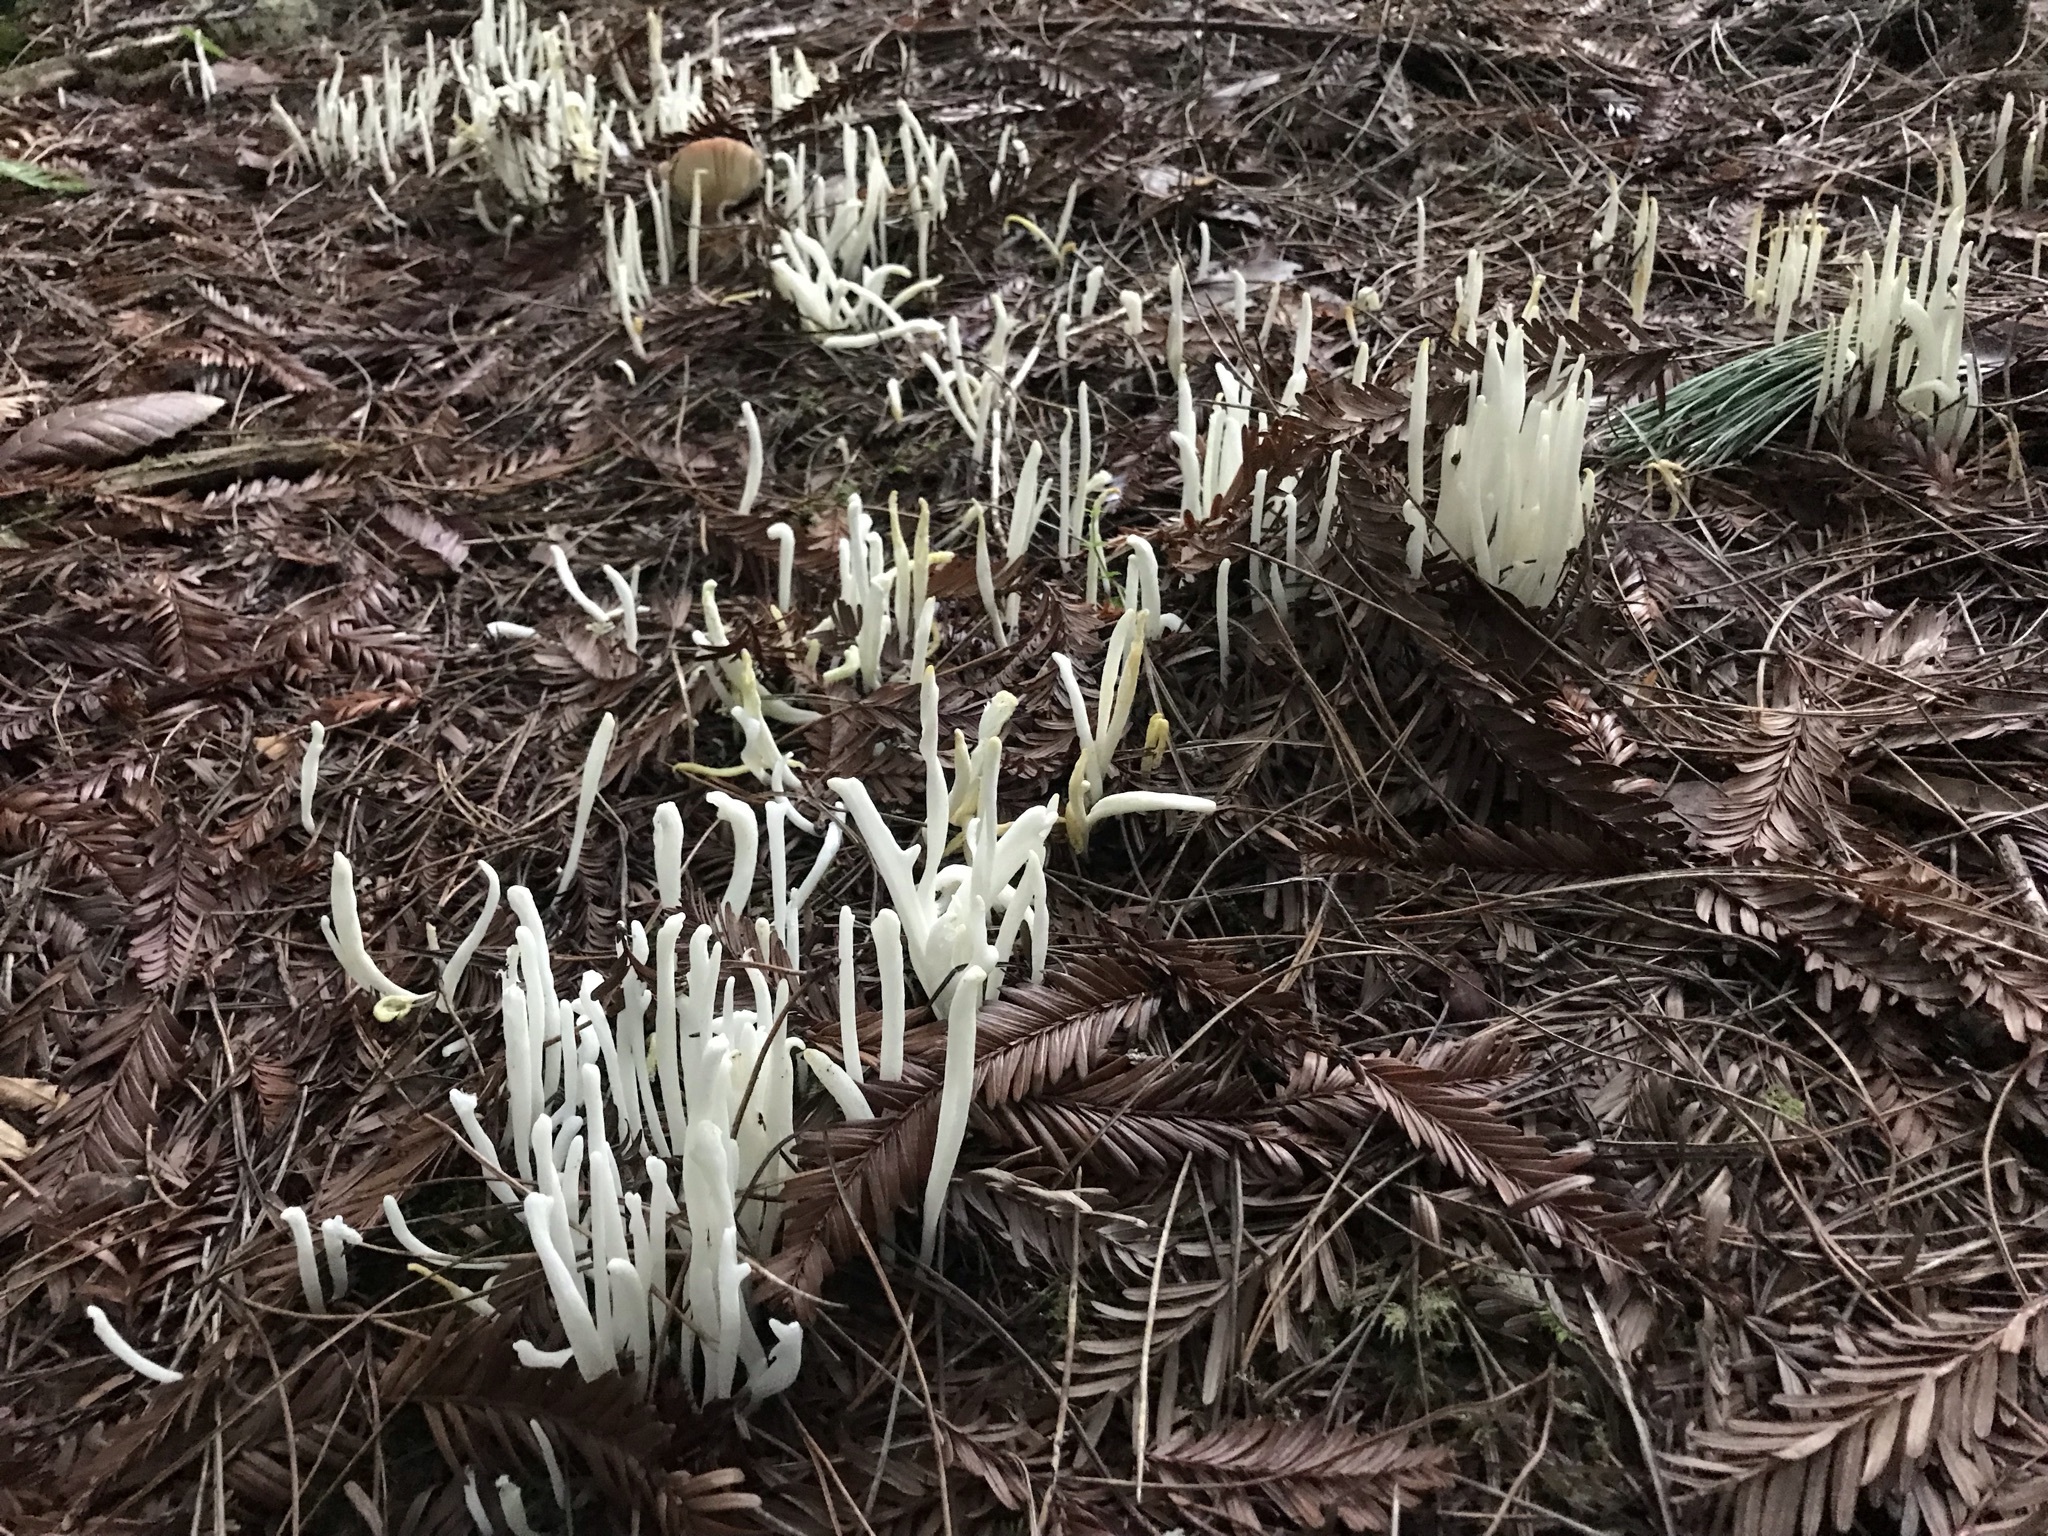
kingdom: Fungi
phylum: Basidiomycota
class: Agaricomycetes
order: Agaricales
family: Clavariaceae
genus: Clavaria
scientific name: Clavaria fragilis
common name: White spindles
